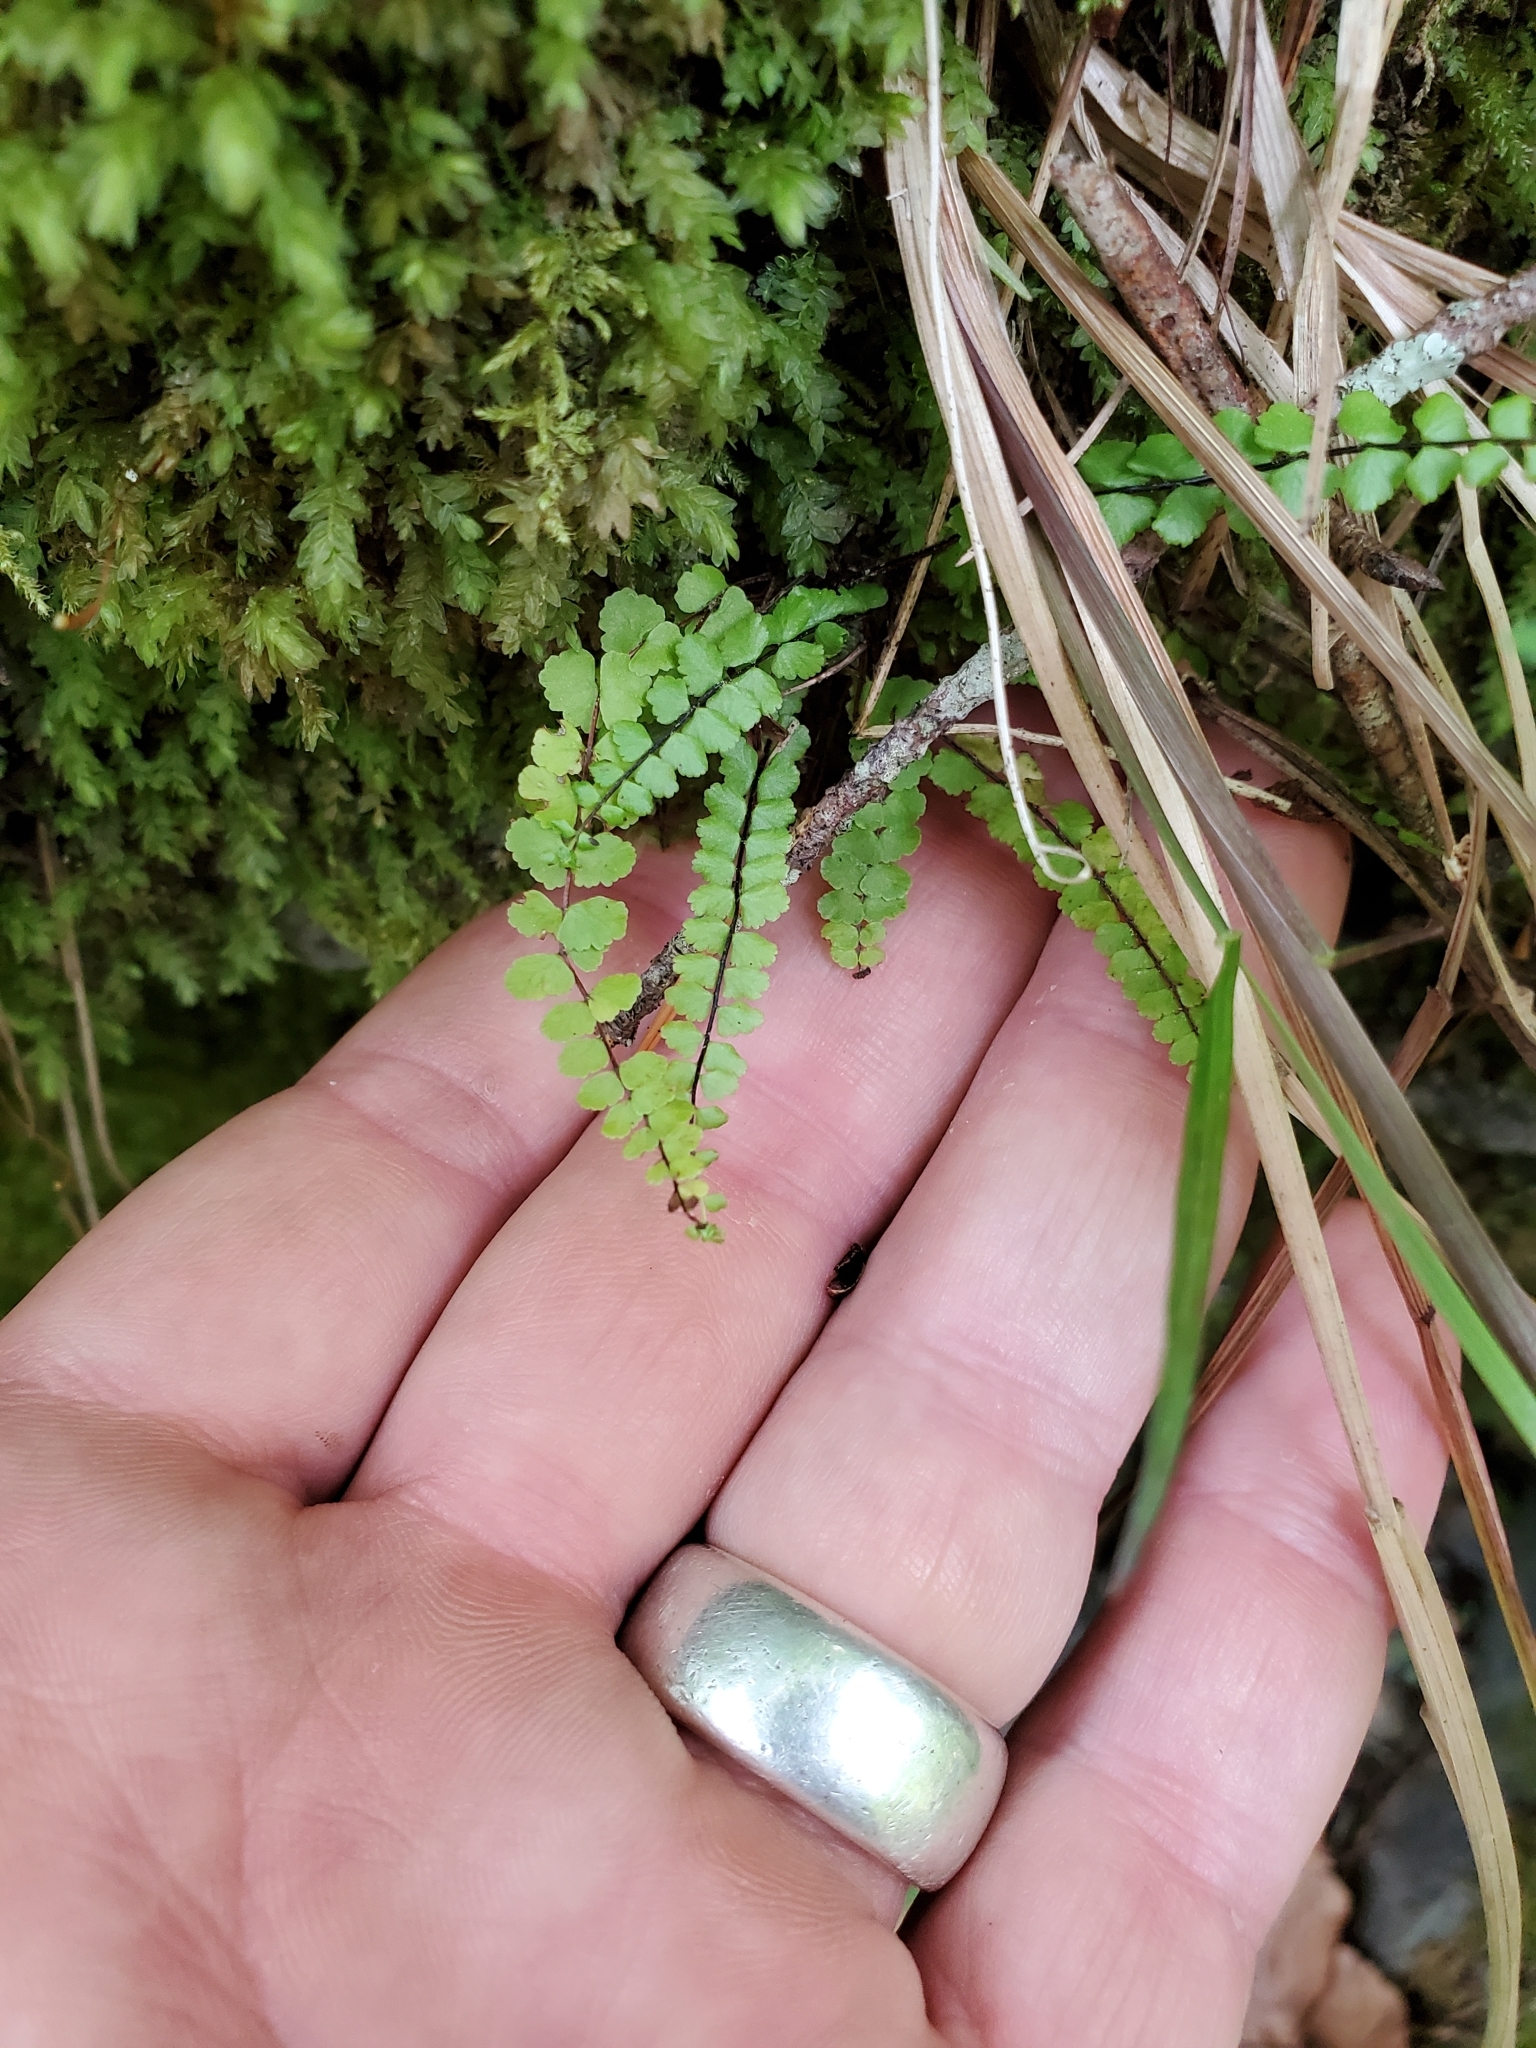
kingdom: Plantae
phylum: Tracheophyta
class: Polypodiopsida
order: Polypodiales
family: Aspleniaceae
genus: Asplenium
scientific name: Asplenium trichomanes
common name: Maidenhair spleenwort
